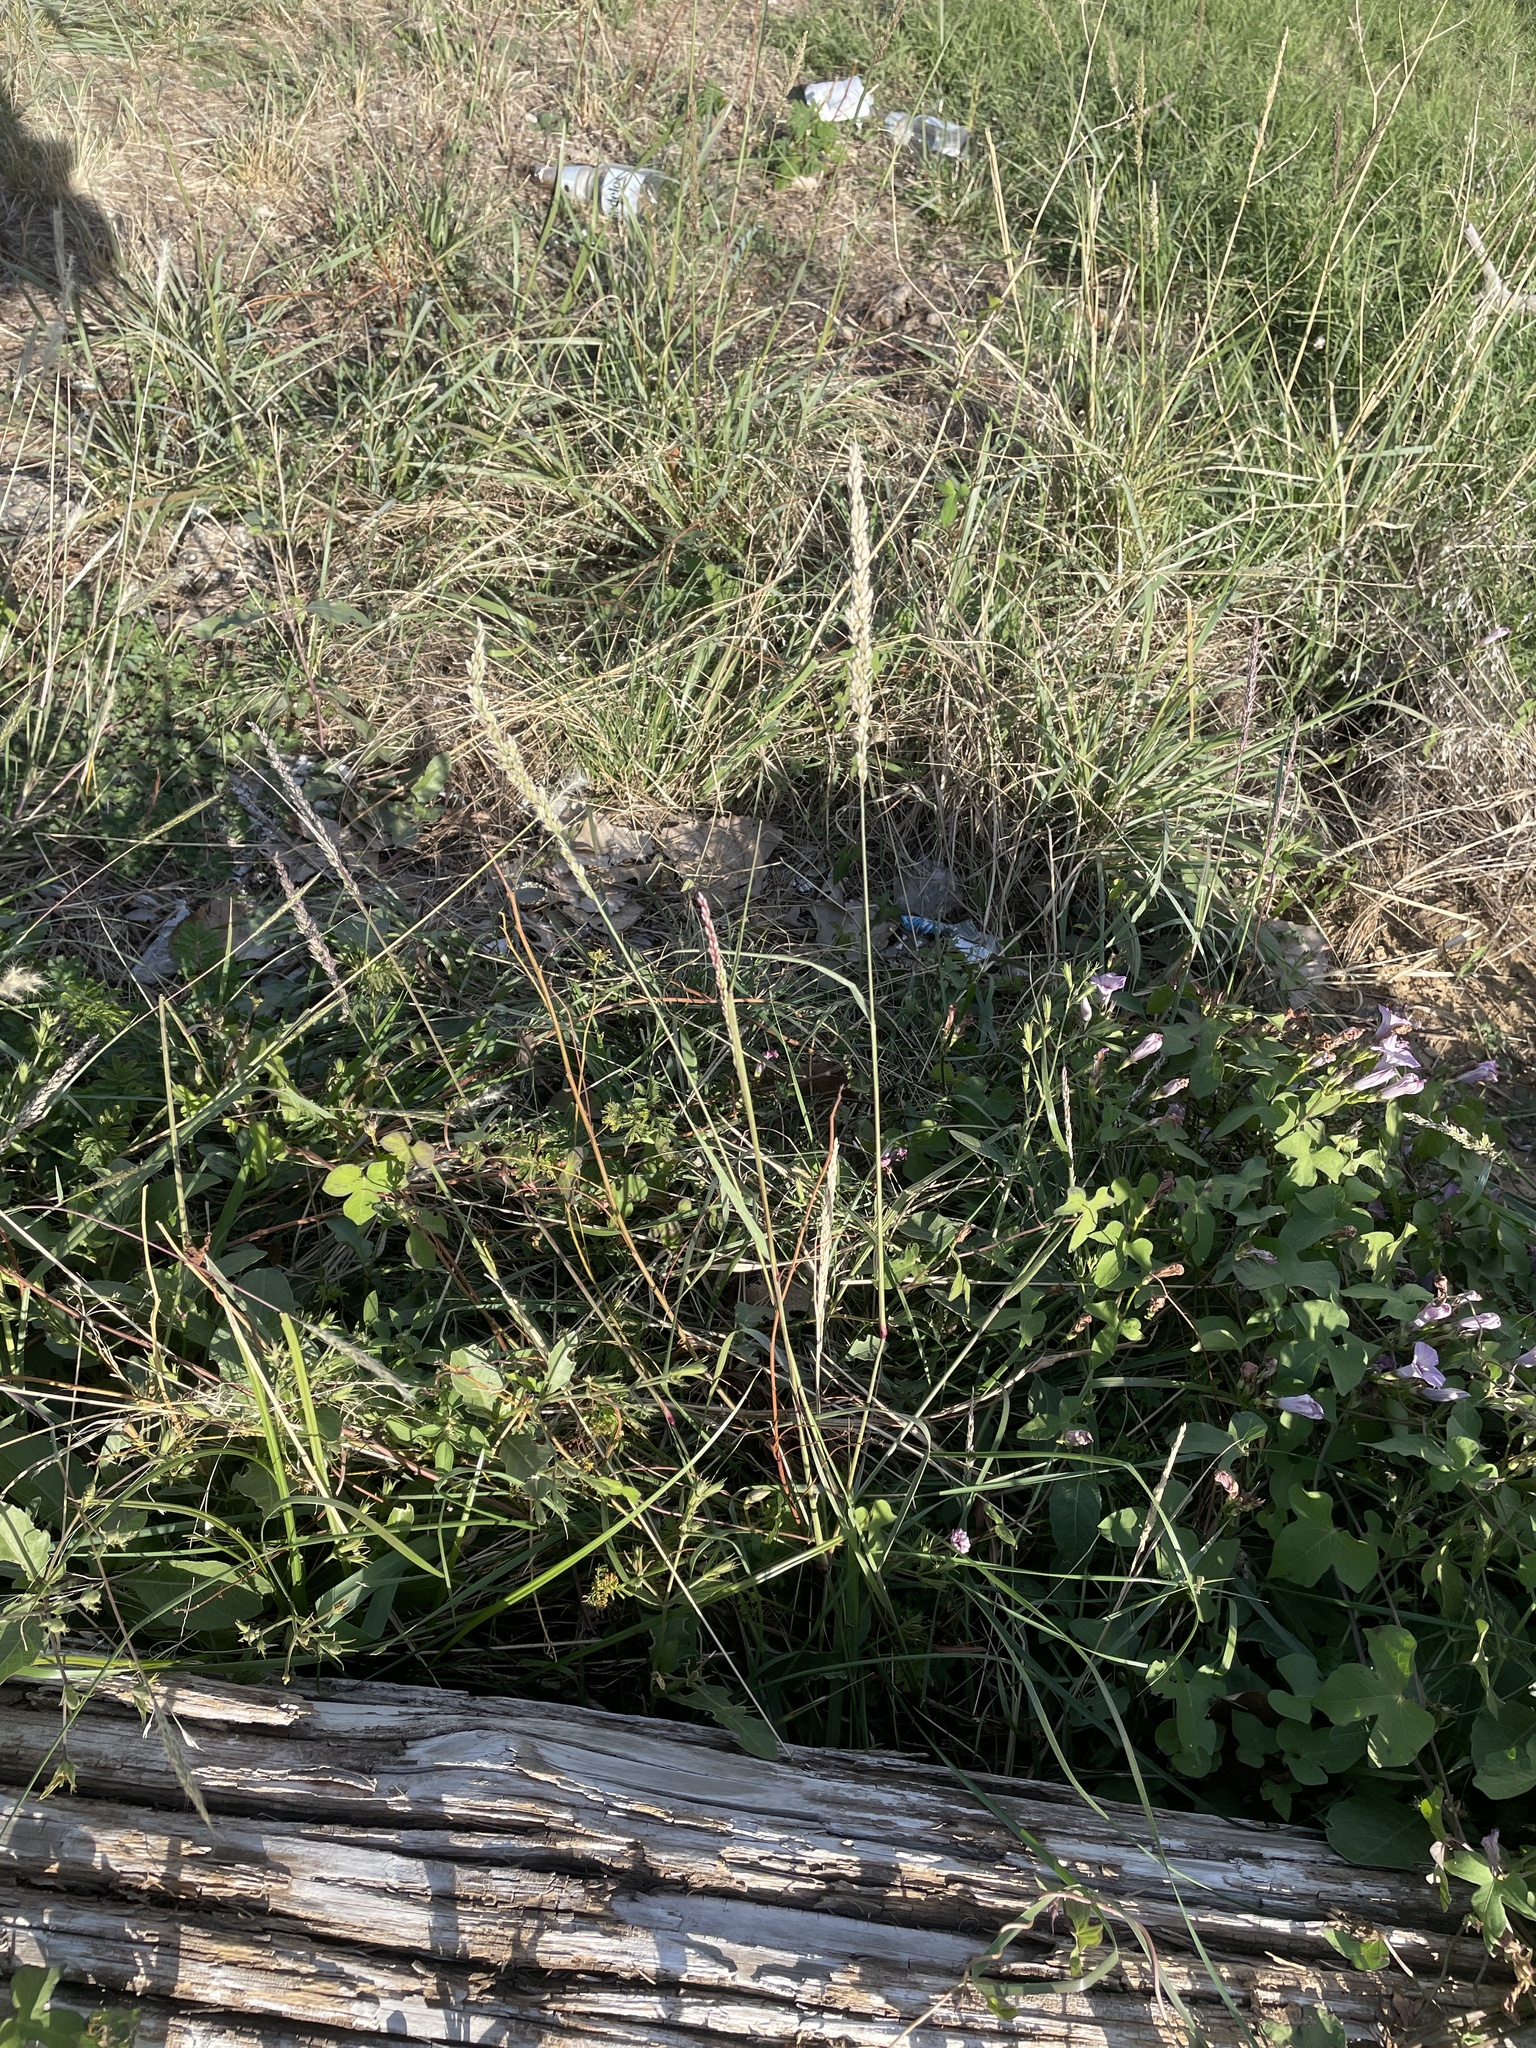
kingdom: Plantae
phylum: Tracheophyta
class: Liliopsida
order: Poales
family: Poaceae
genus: Tridens
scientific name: Tridens albescens
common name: White tridens
